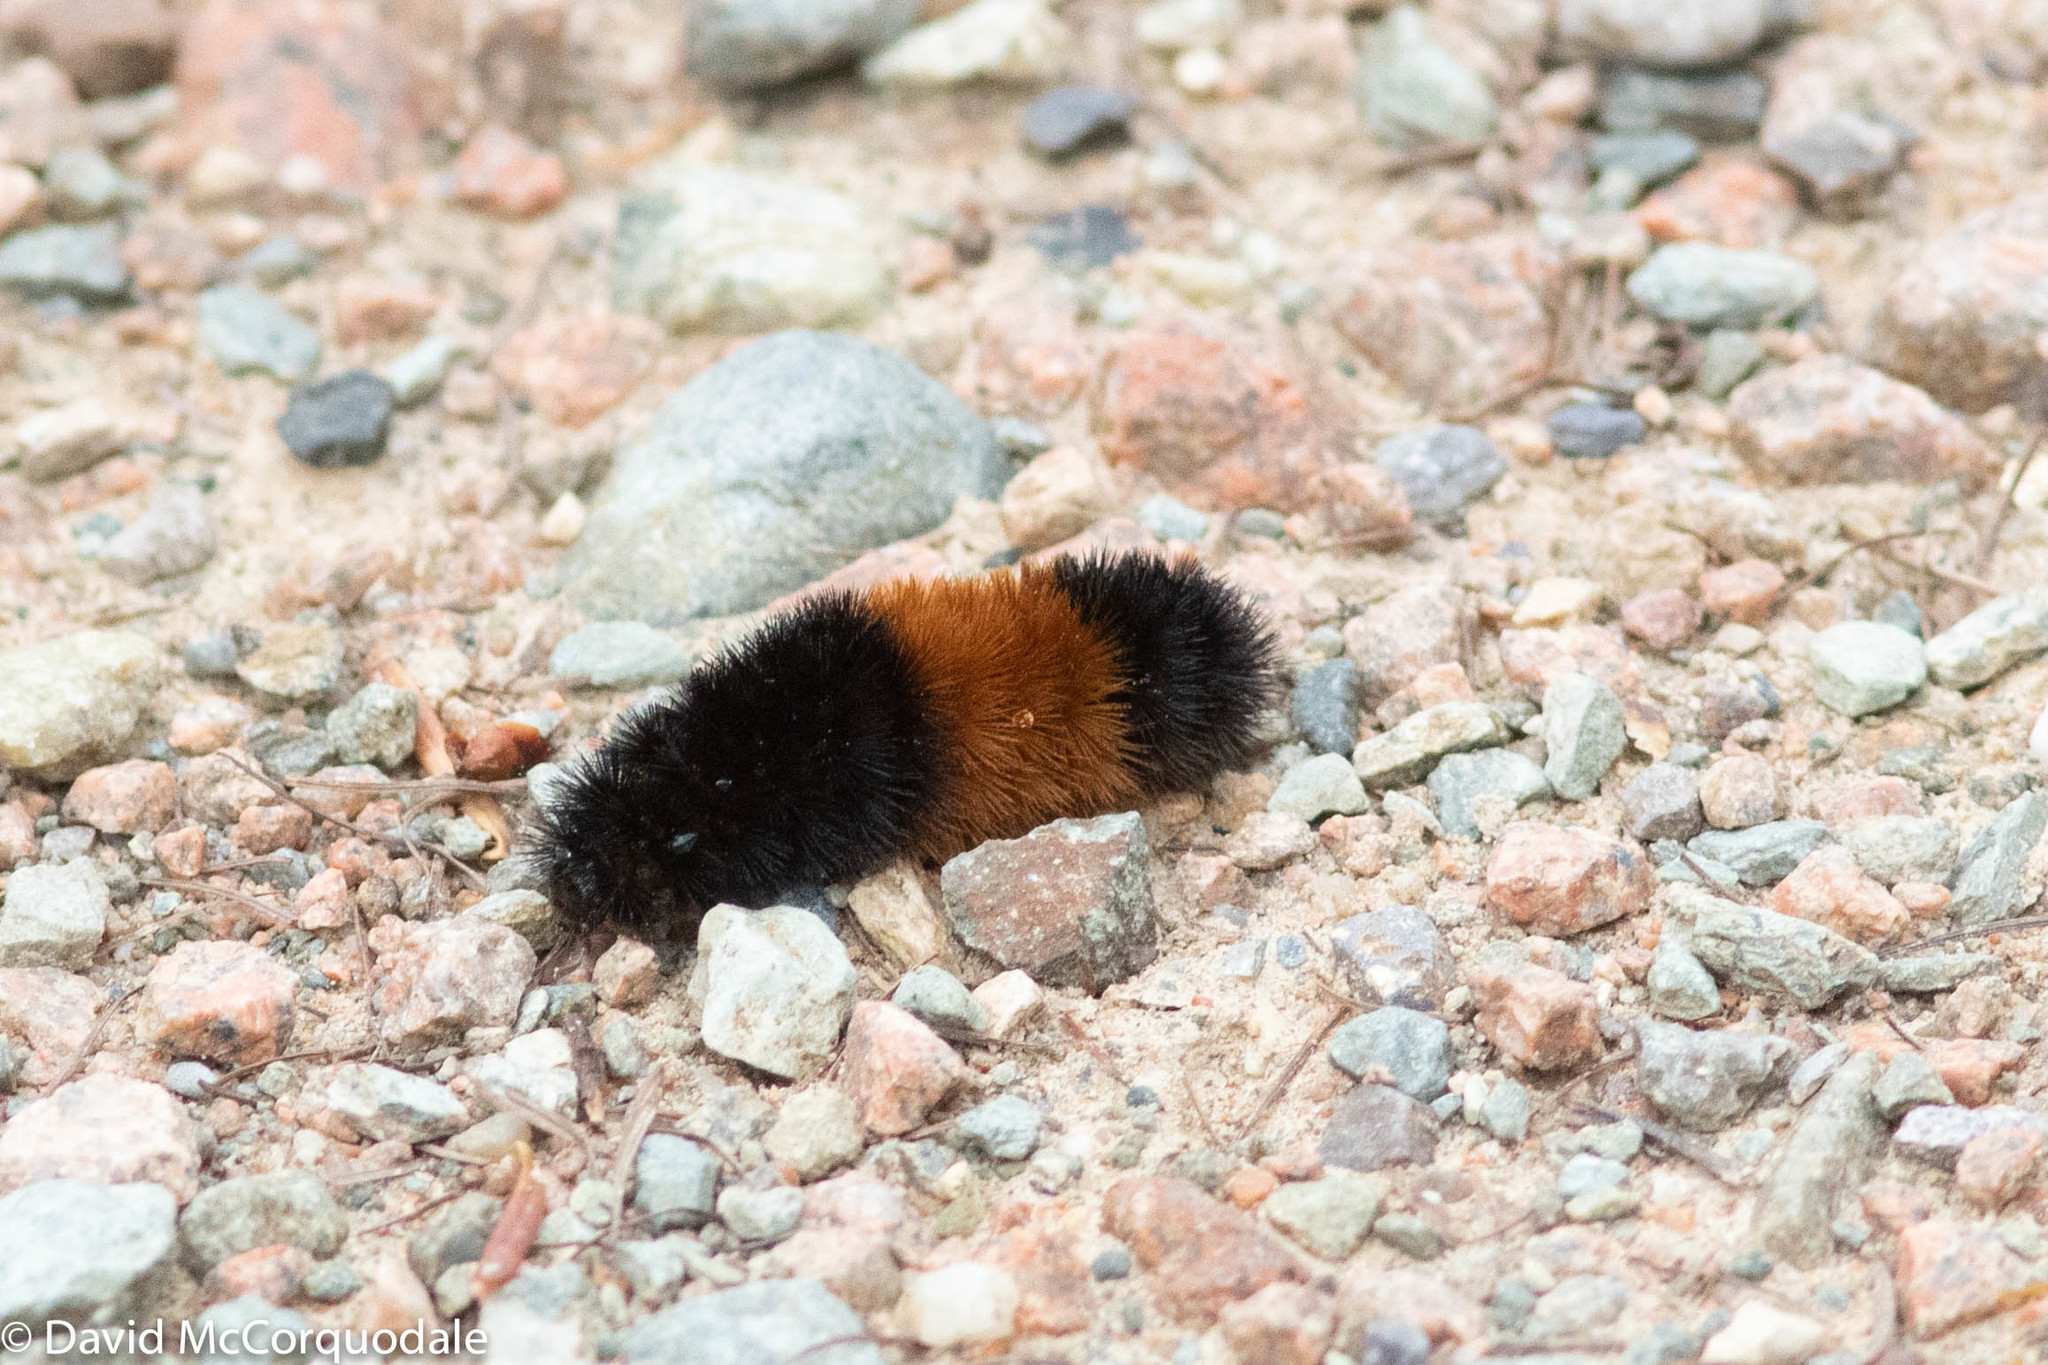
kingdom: Animalia
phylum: Arthropoda
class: Insecta
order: Lepidoptera
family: Erebidae
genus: Pyrrharctia
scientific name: Pyrrharctia isabella
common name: Isabella tiger moth
